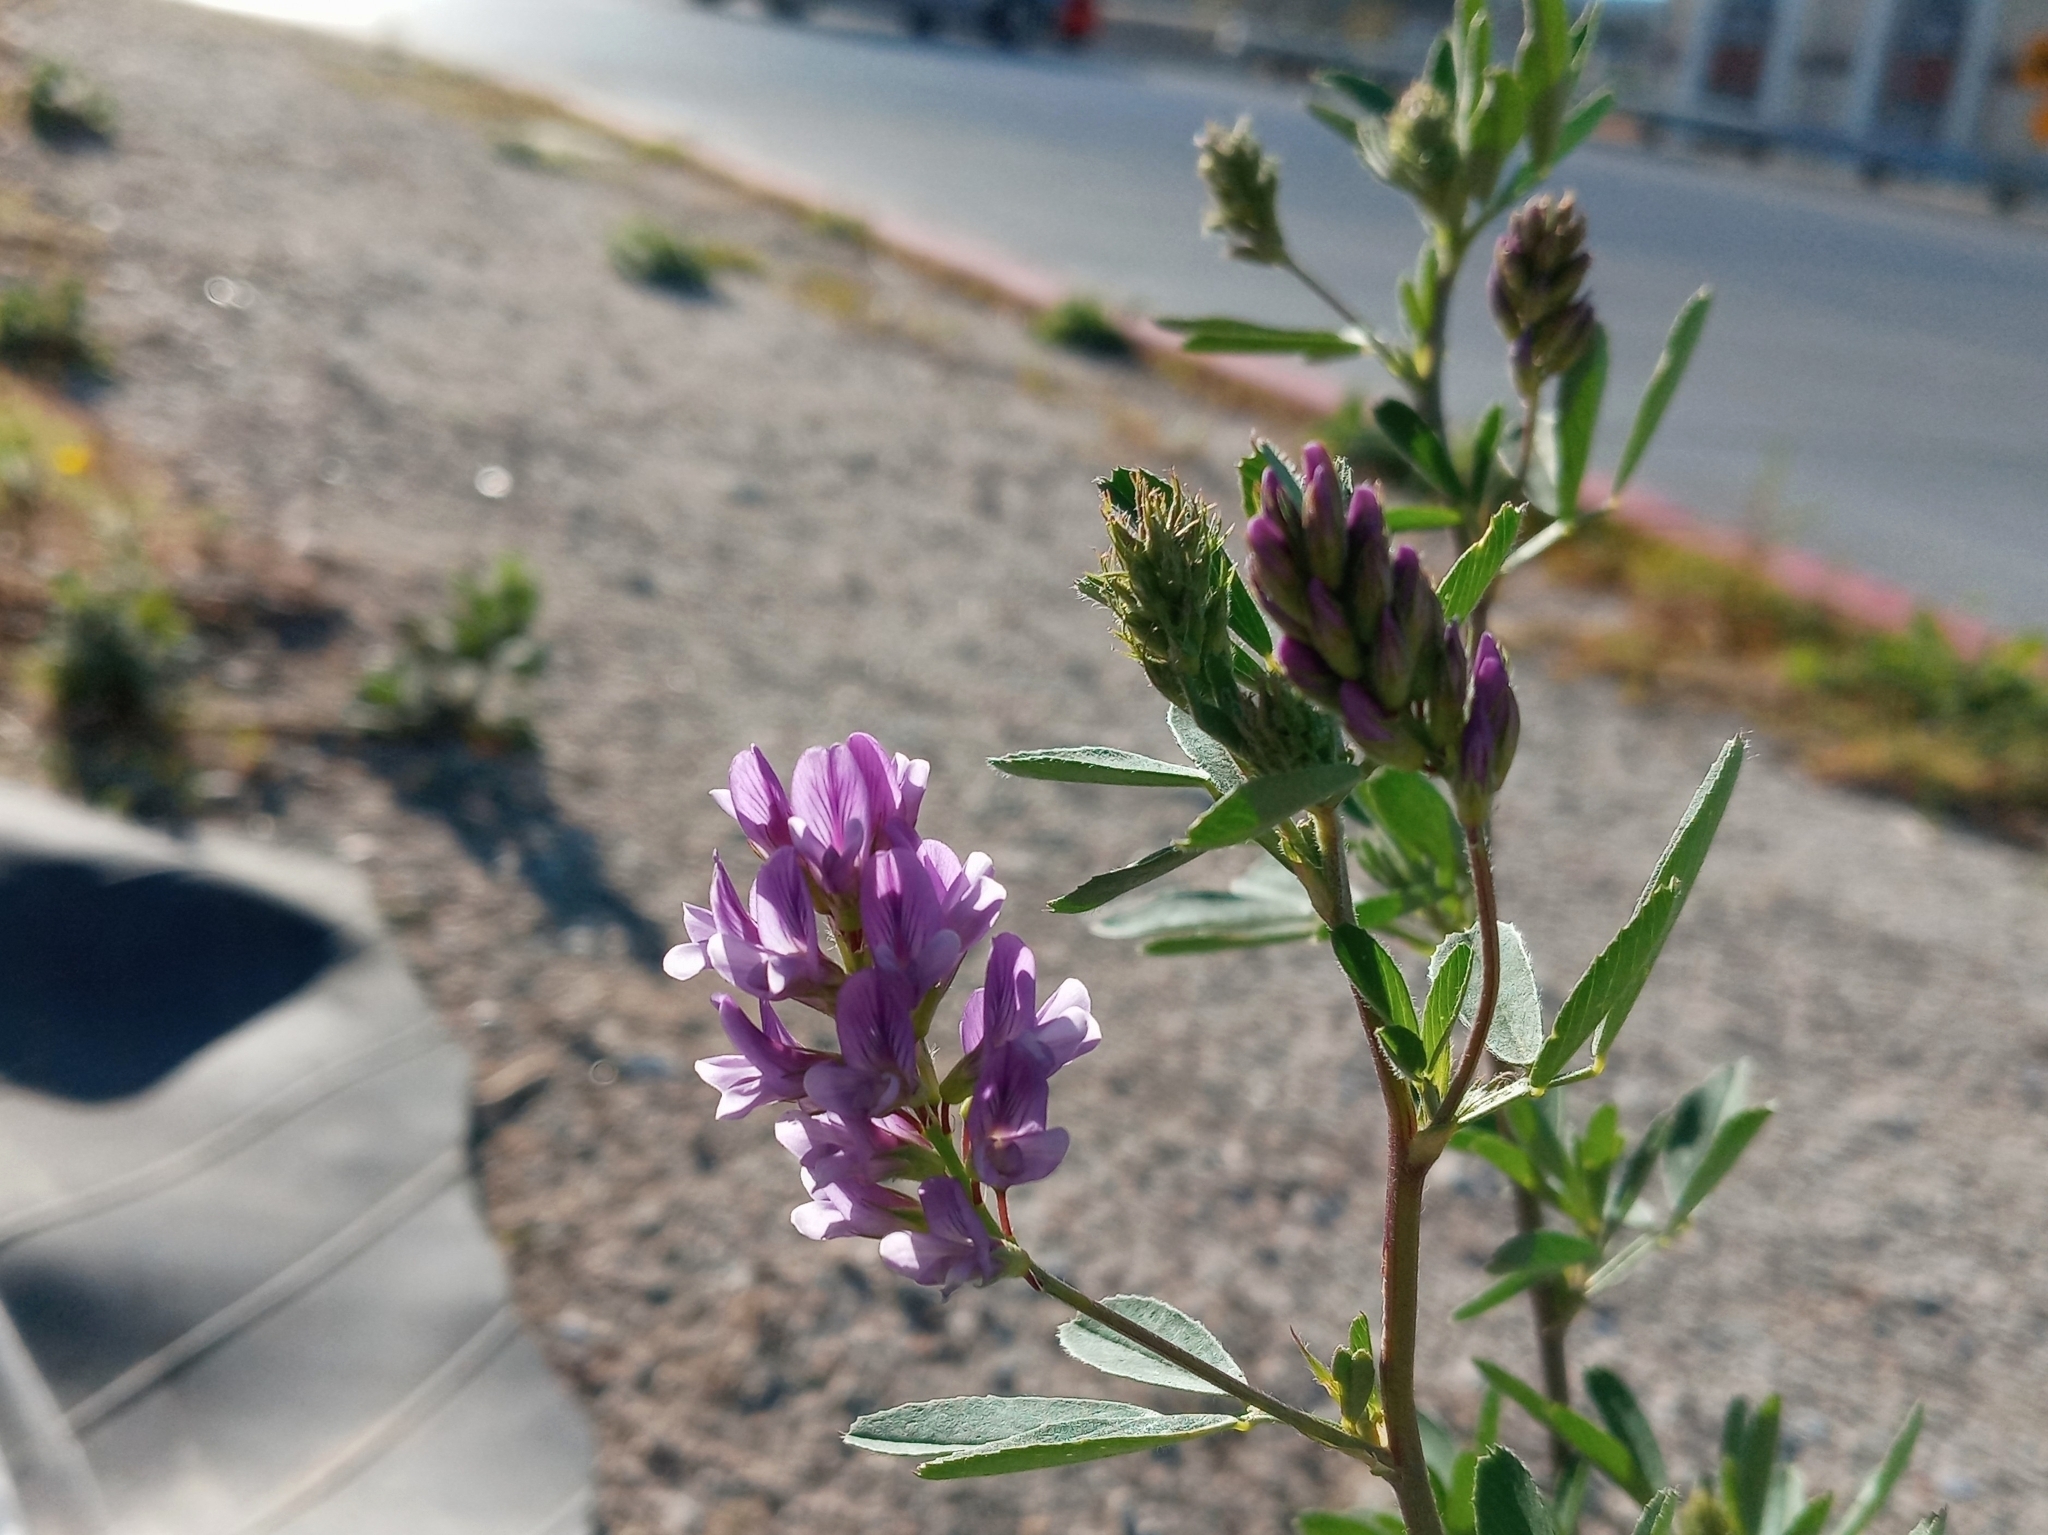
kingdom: Plantae
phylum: Tracheophyta
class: Magnoliopsida
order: Fabales
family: Fabaceae
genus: Medicago
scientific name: Medicago sativa
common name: Alfalfa
